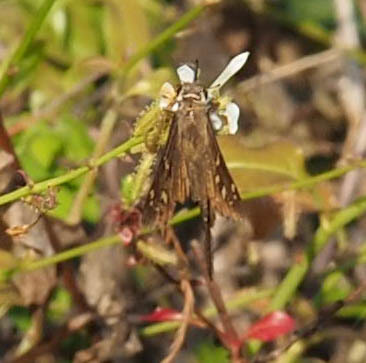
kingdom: Animalia
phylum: Arthropoda
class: Insecta
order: Lepidoptera
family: Hesperiidae
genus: Thorybes
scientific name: Thorybes
